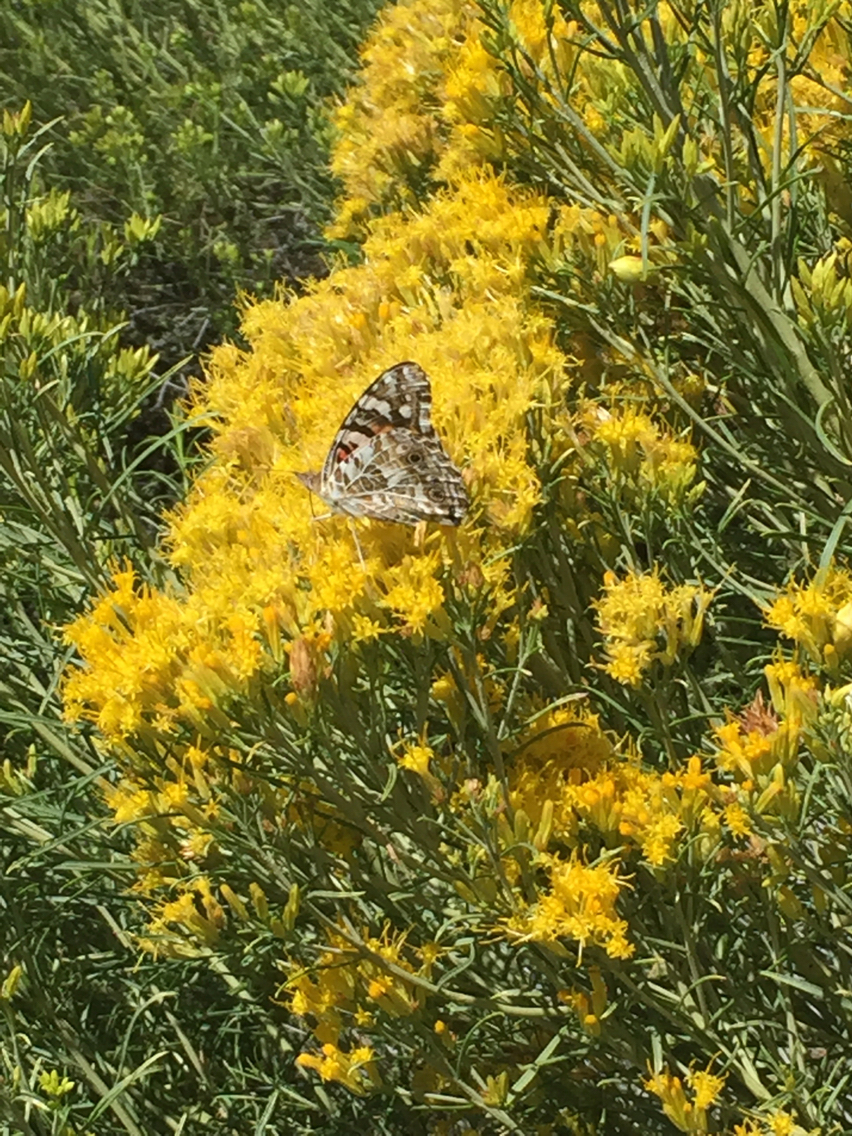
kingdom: Animalia
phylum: Arthropoda
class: Insecta
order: Lepidoptera
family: Nymphalidae
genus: Vanessa
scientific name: Vanessa cardui
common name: Painted lady
